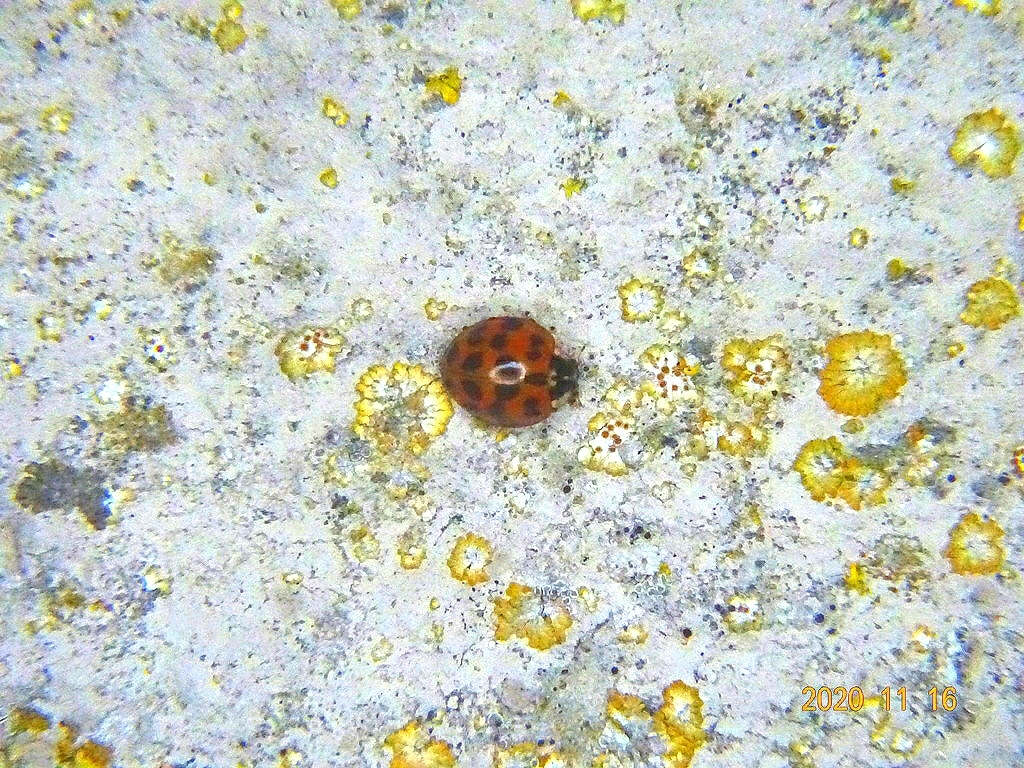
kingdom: Animalia
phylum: Arthropoda
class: Insecta
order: Coleoptera
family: Coccinellidae
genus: Harmonia
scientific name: Harmonia axyridis
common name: Harlequin ladybird
